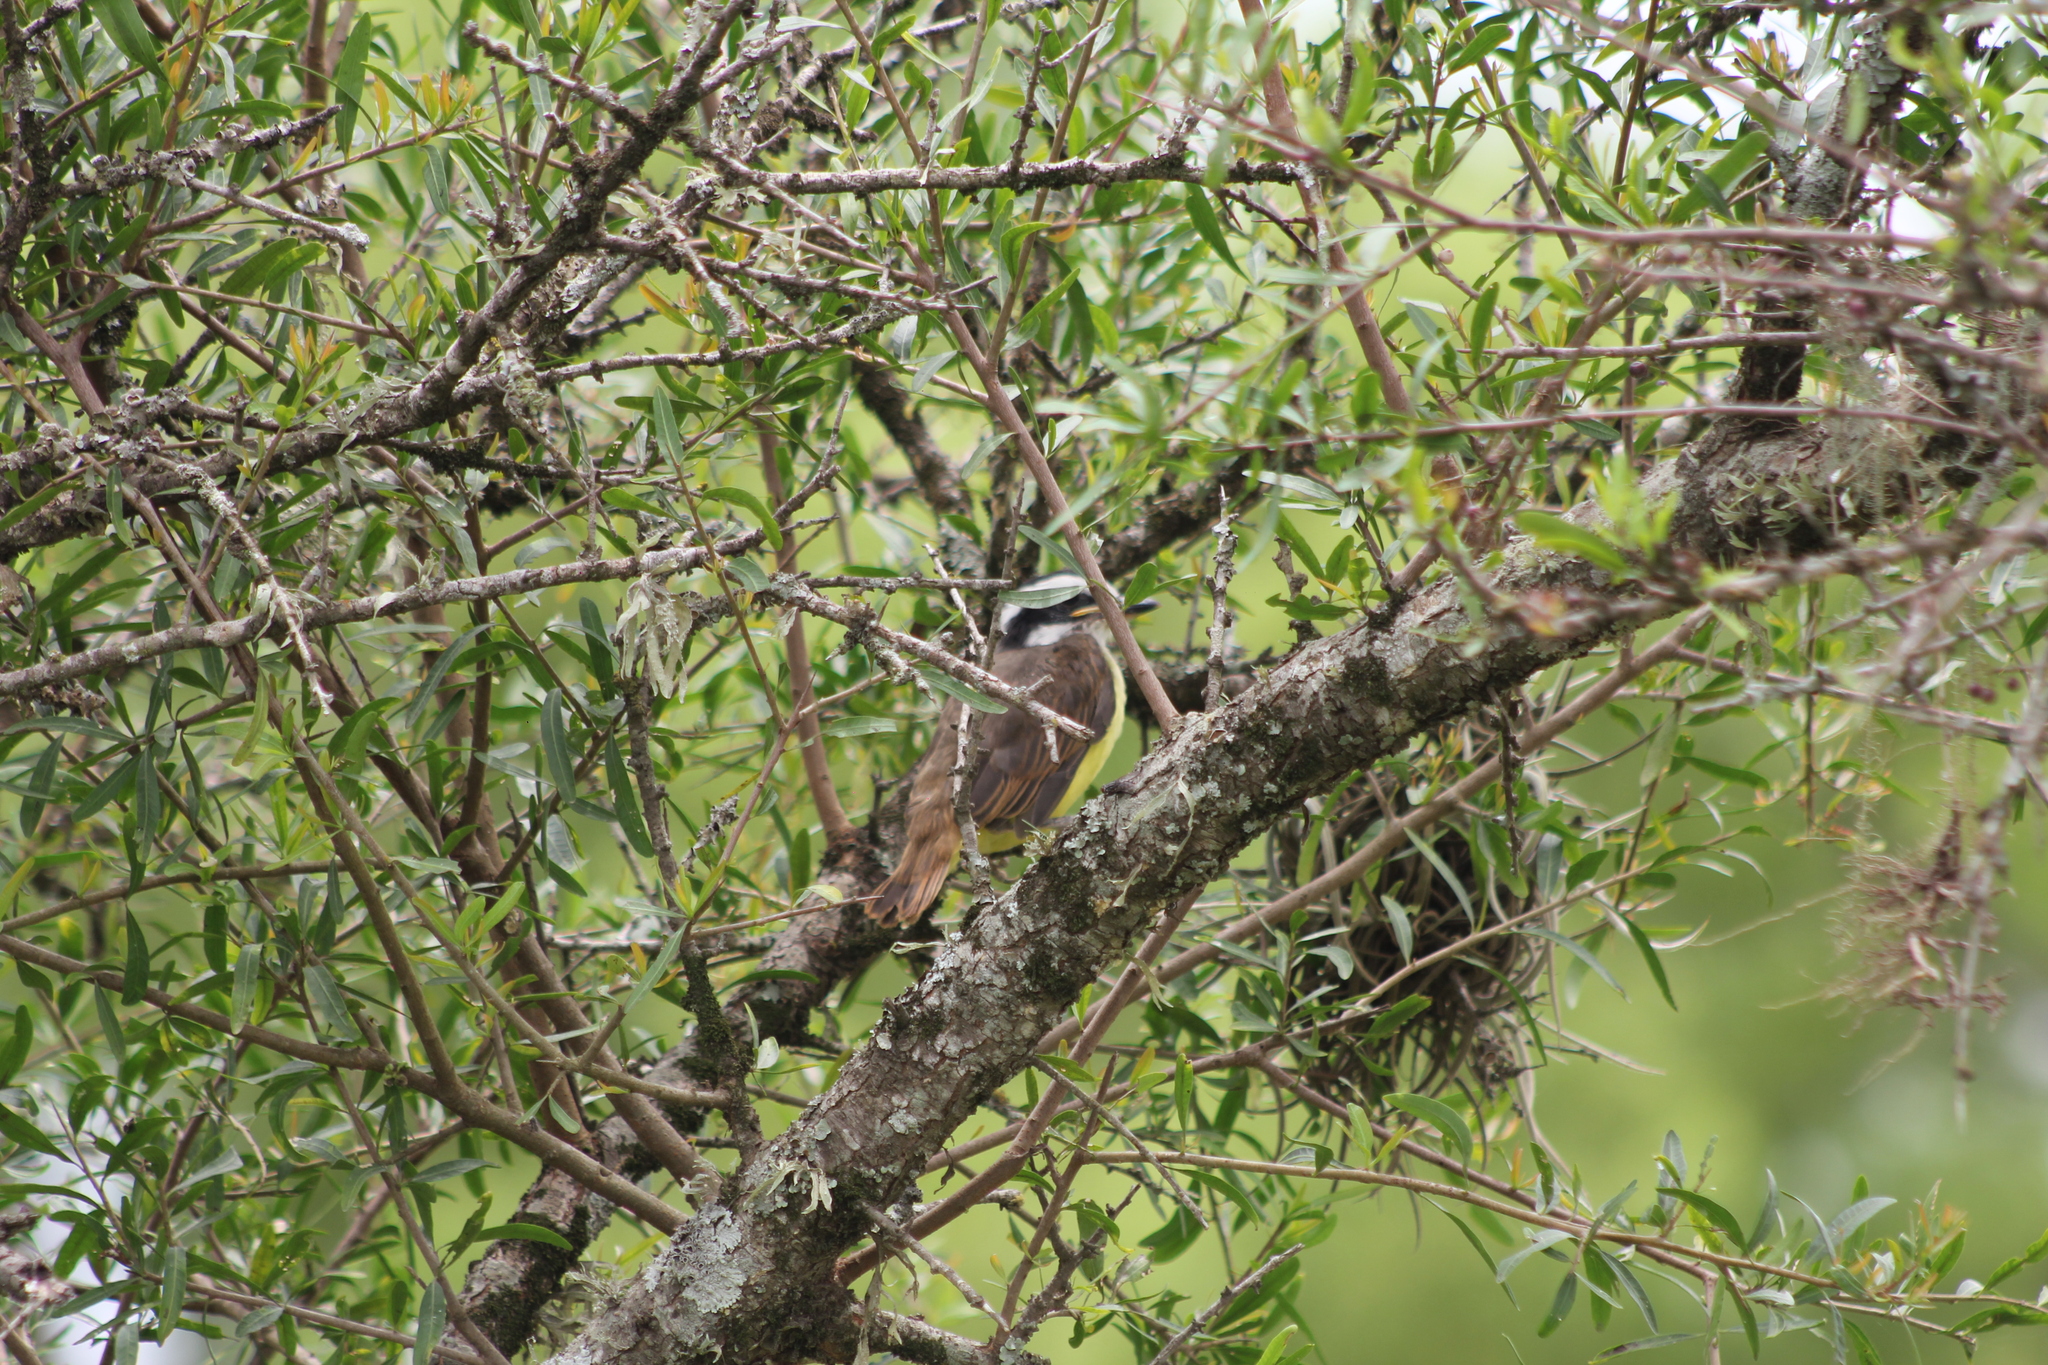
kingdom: Animalia
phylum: Chordata
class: Aves
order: Passeriformes
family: Tyrannidae
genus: Pitangus
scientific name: Pitangus sulphuratus
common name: Great kiskadee
